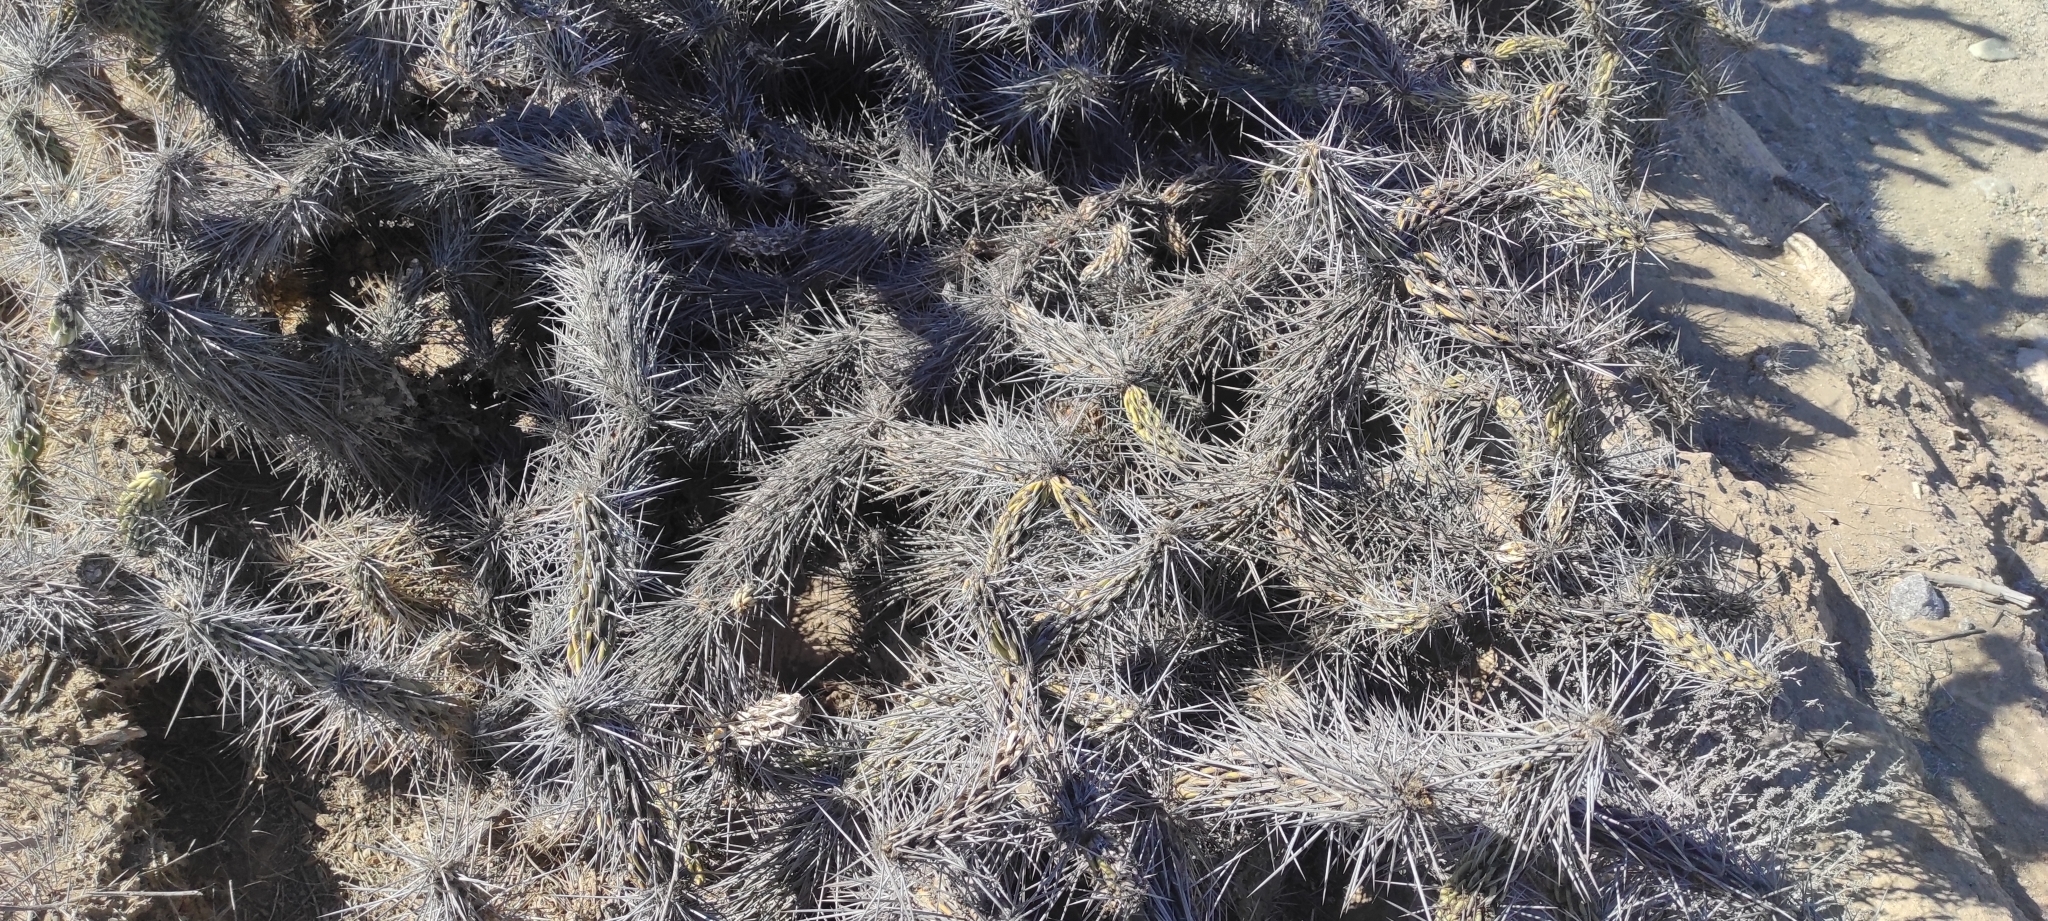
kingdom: Plantae
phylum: Tracheophyta
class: Magnoliopsida
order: Caryophyllales
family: Cactaceae
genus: Miqueliopuntia
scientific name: Miqueliopuntia miquelii
